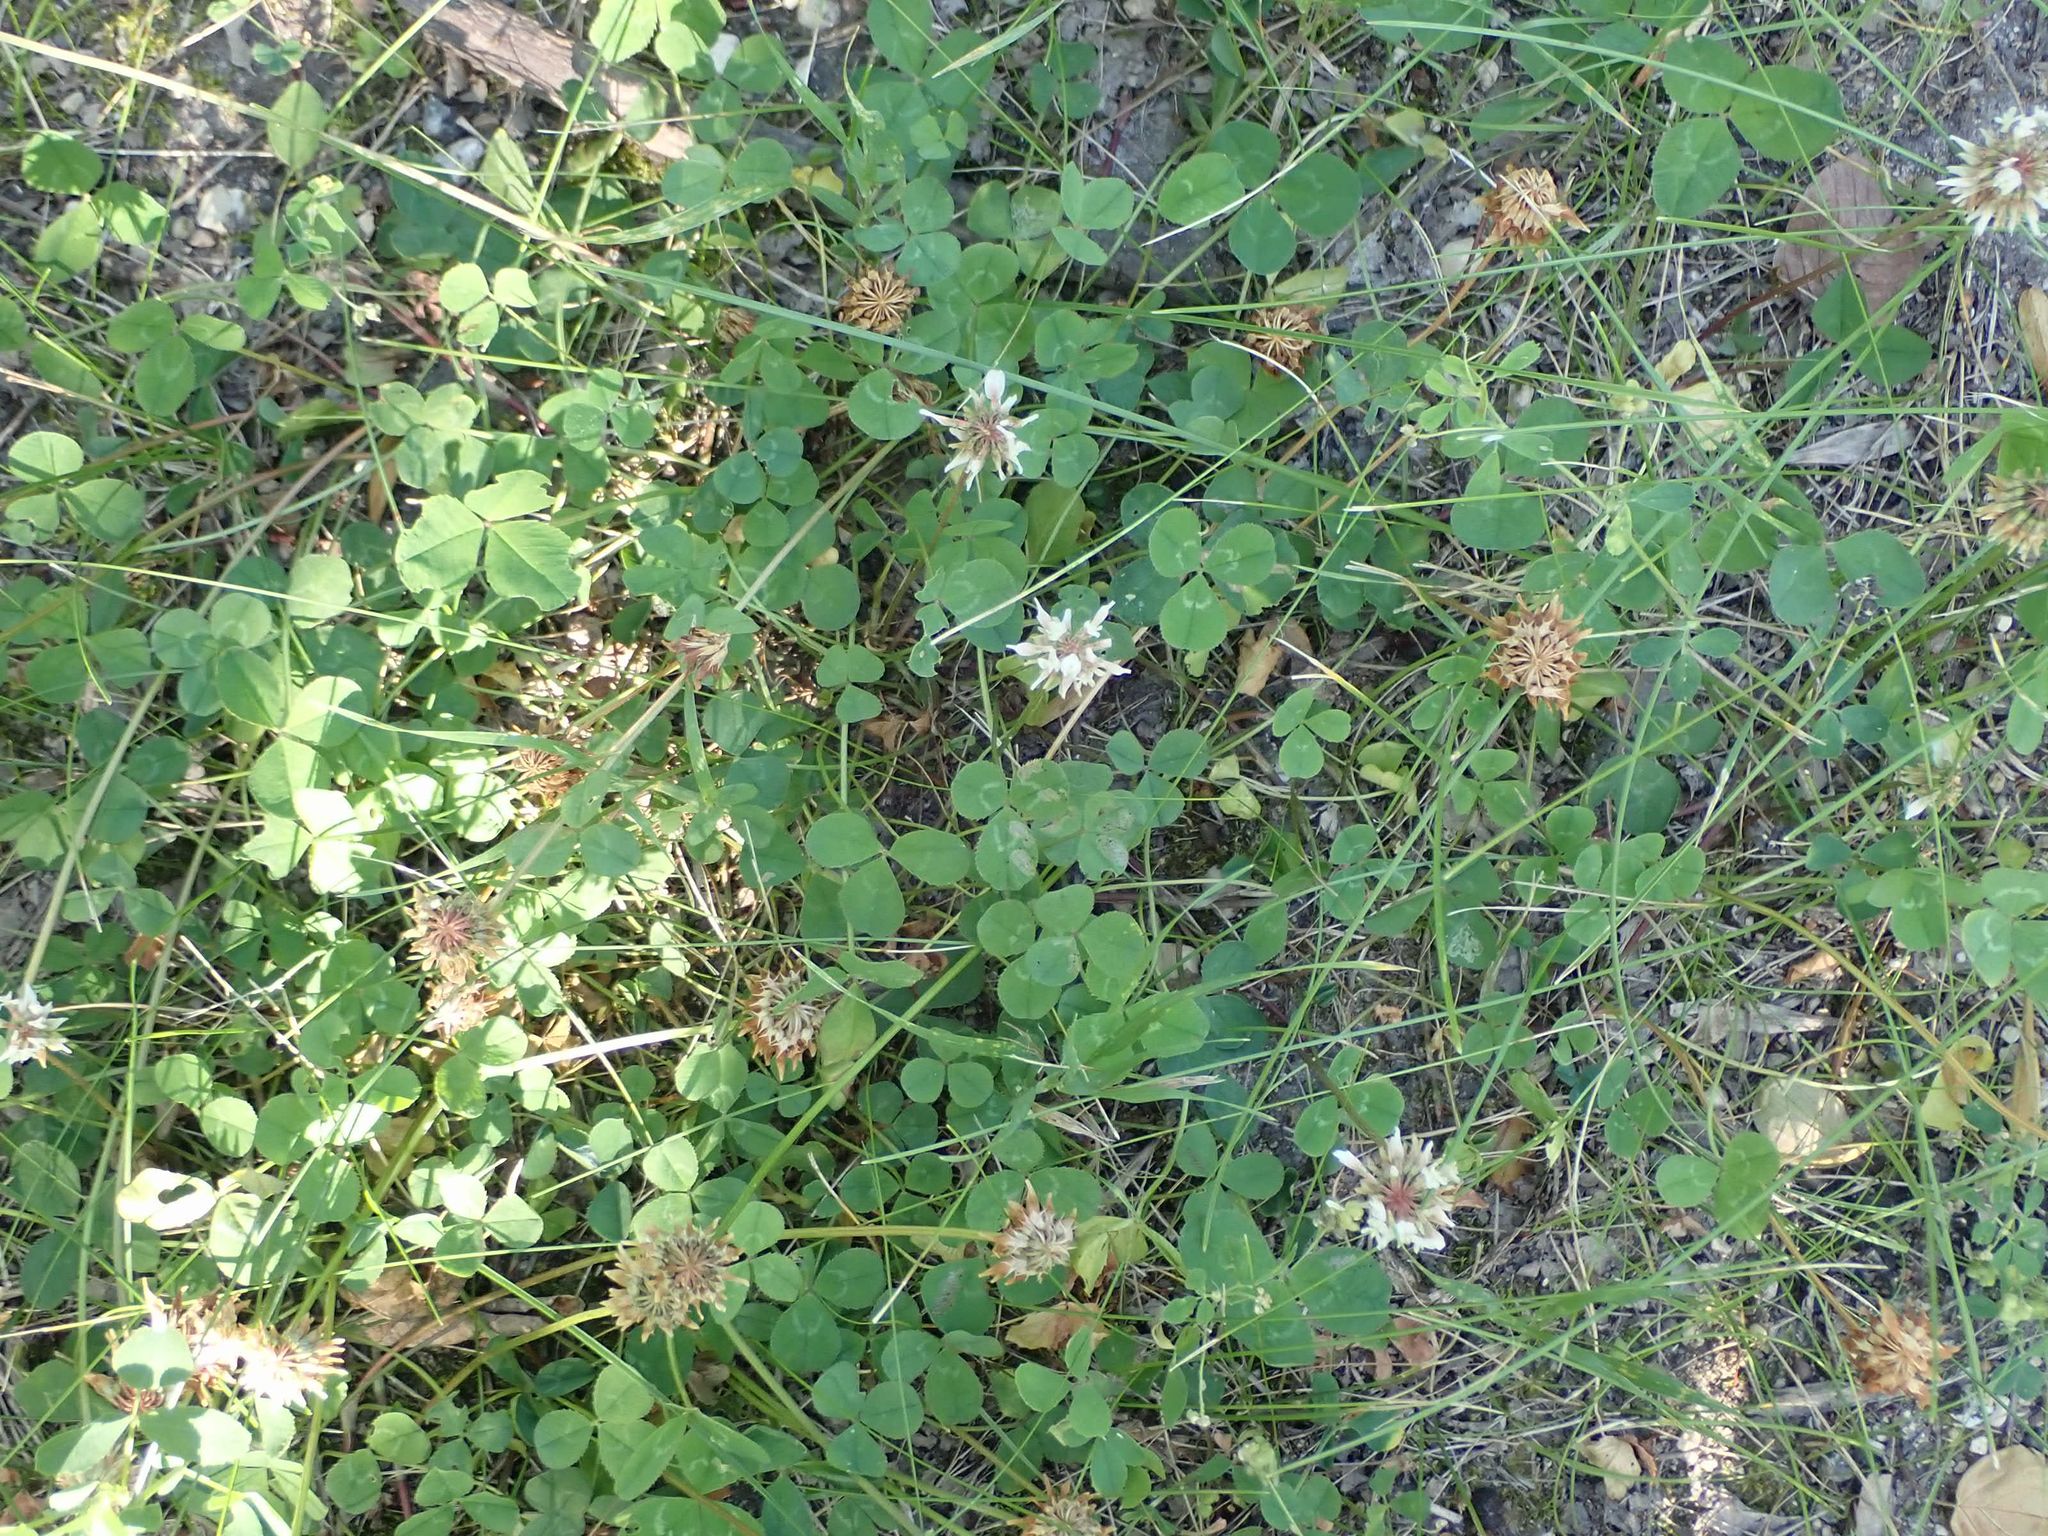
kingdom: Plantae
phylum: Tracheophyta
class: Magnoliopsida
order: Fabales
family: Fabaceae
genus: Trifolium
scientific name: Trifolium repens
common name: White clover
